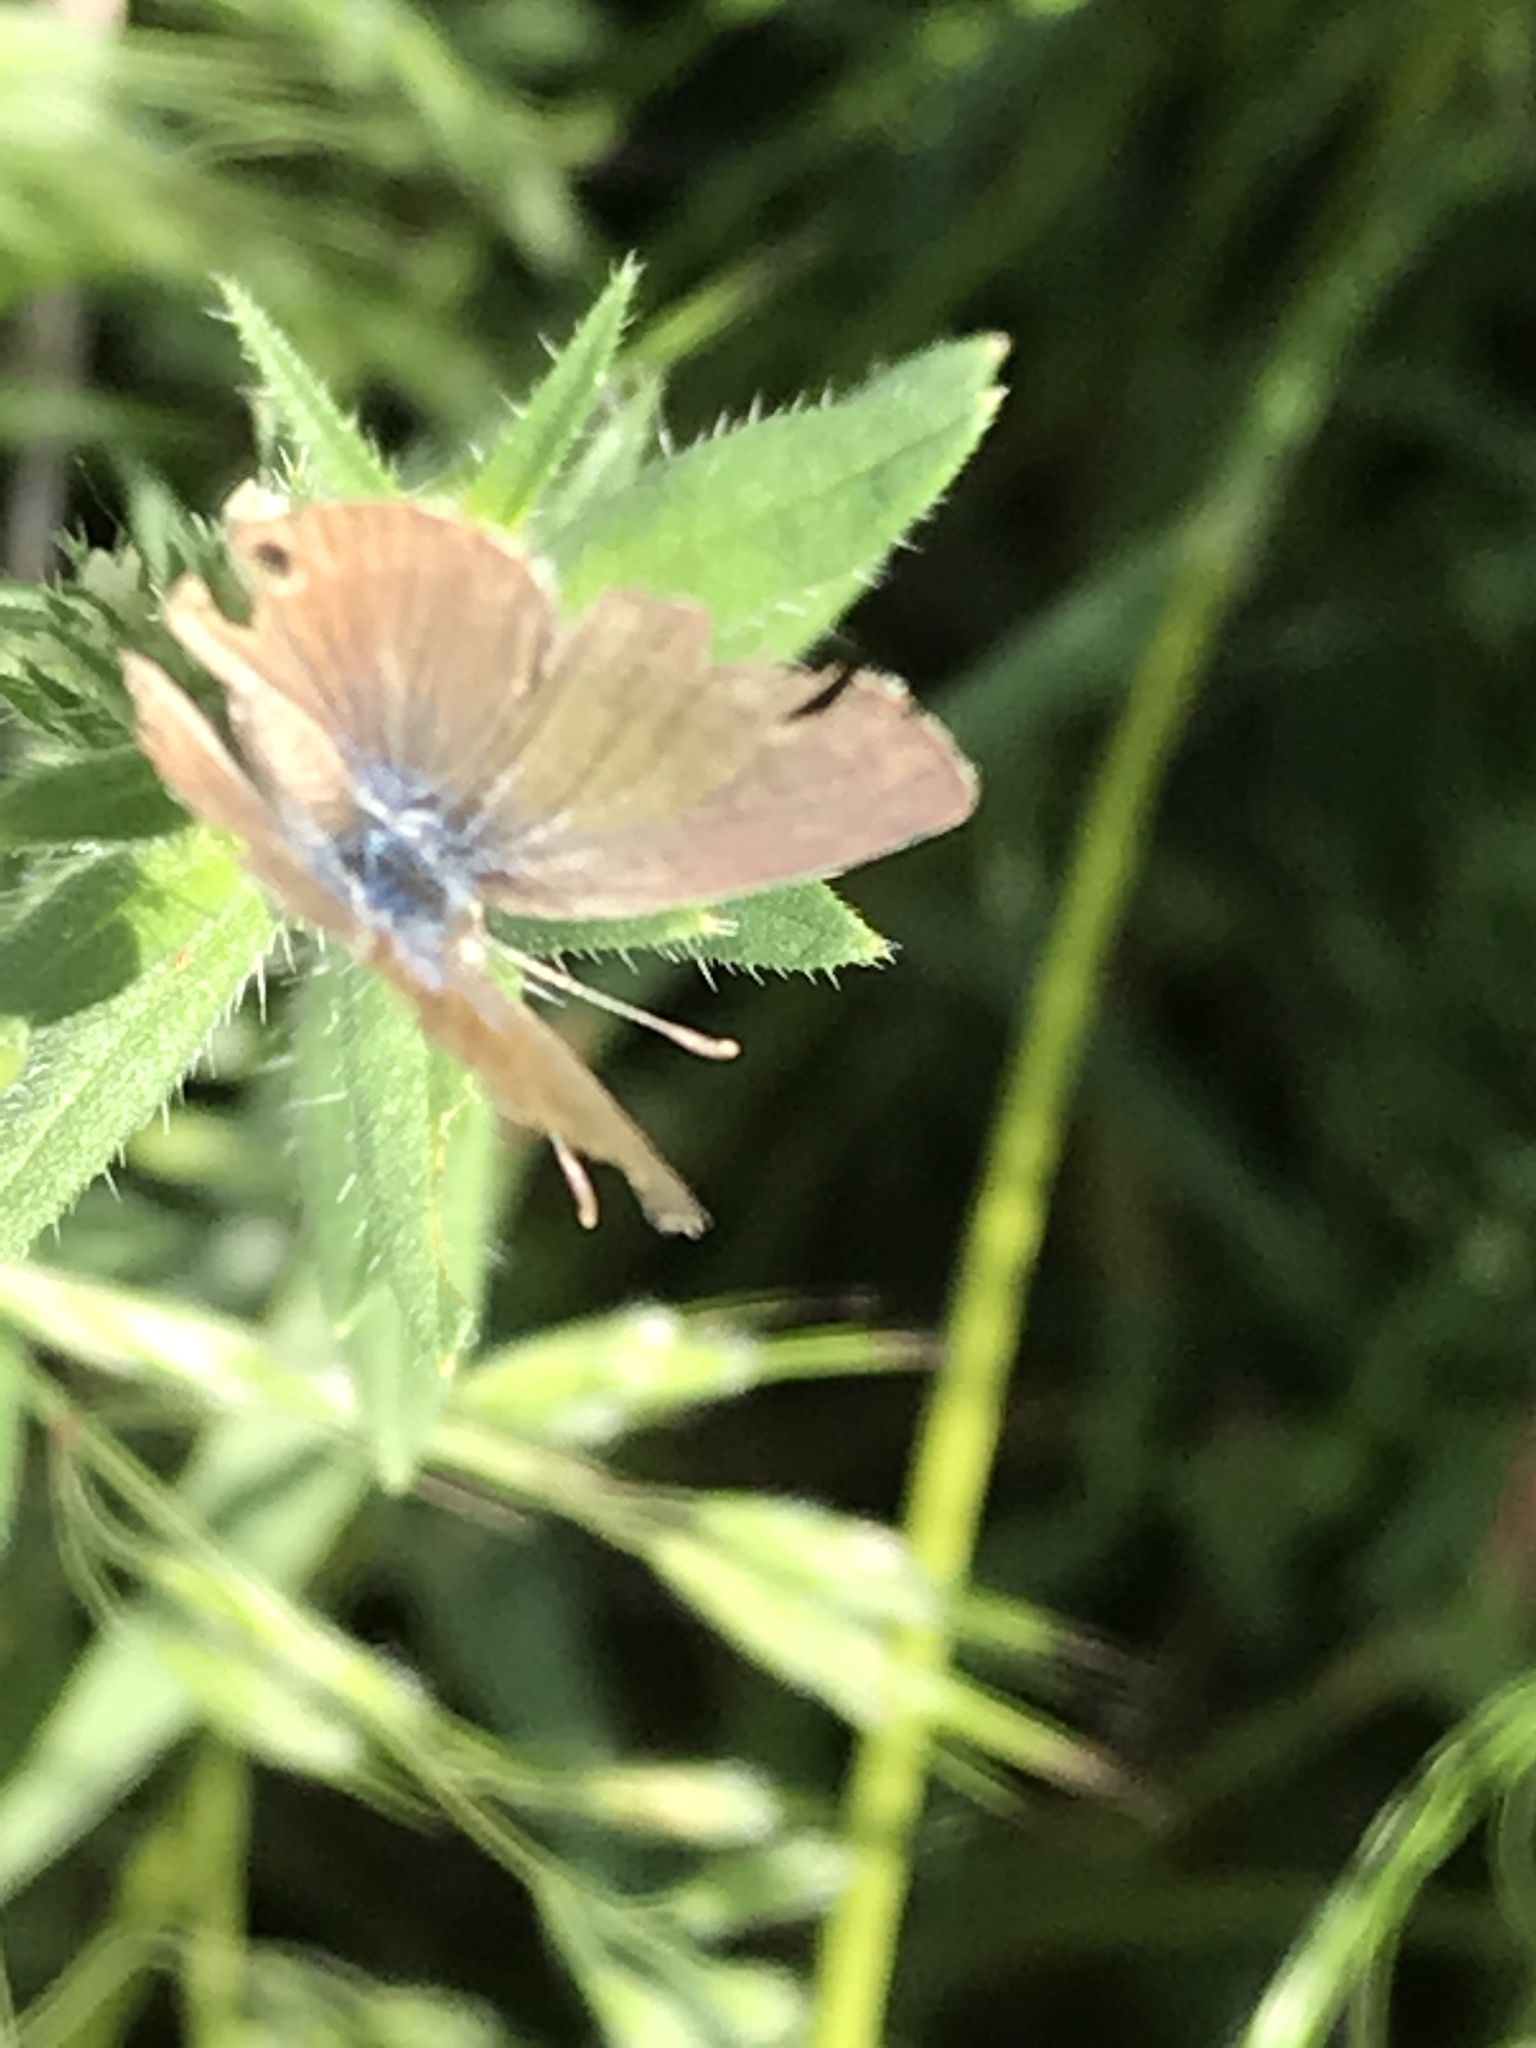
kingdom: Animalia
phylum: Arthropoda
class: Insecta
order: Lepidoptera
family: Lycaenidae
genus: Echinargus
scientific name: Echinargus isola
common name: Reakirt's blue
